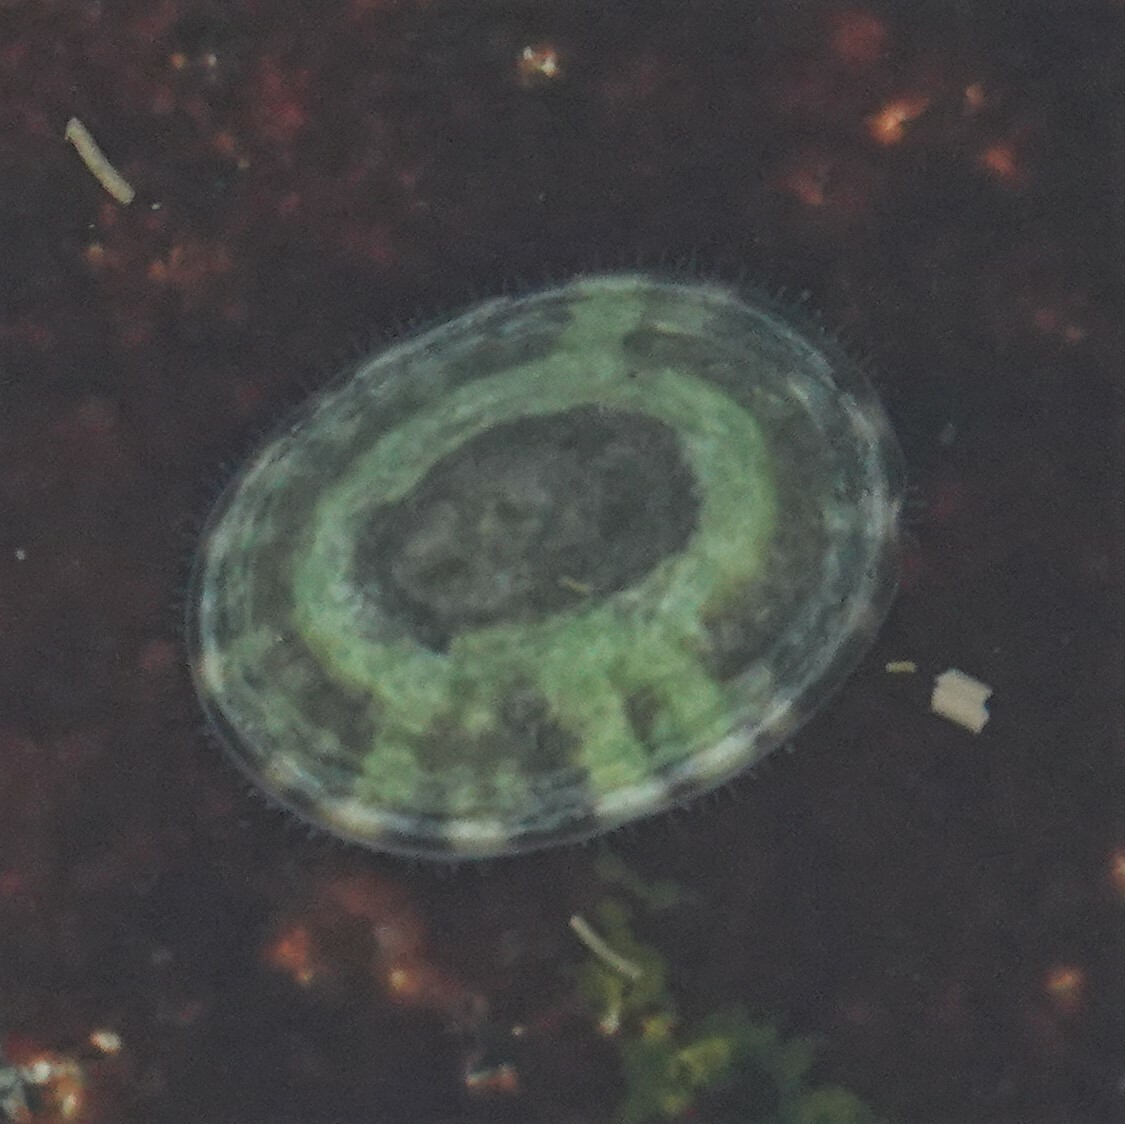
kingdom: Animalia
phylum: Mollusca
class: Gastropoda
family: Lottiidae
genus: Testudinalia
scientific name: Testudinalia testudinalis
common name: Common tortoiseshell limpet
